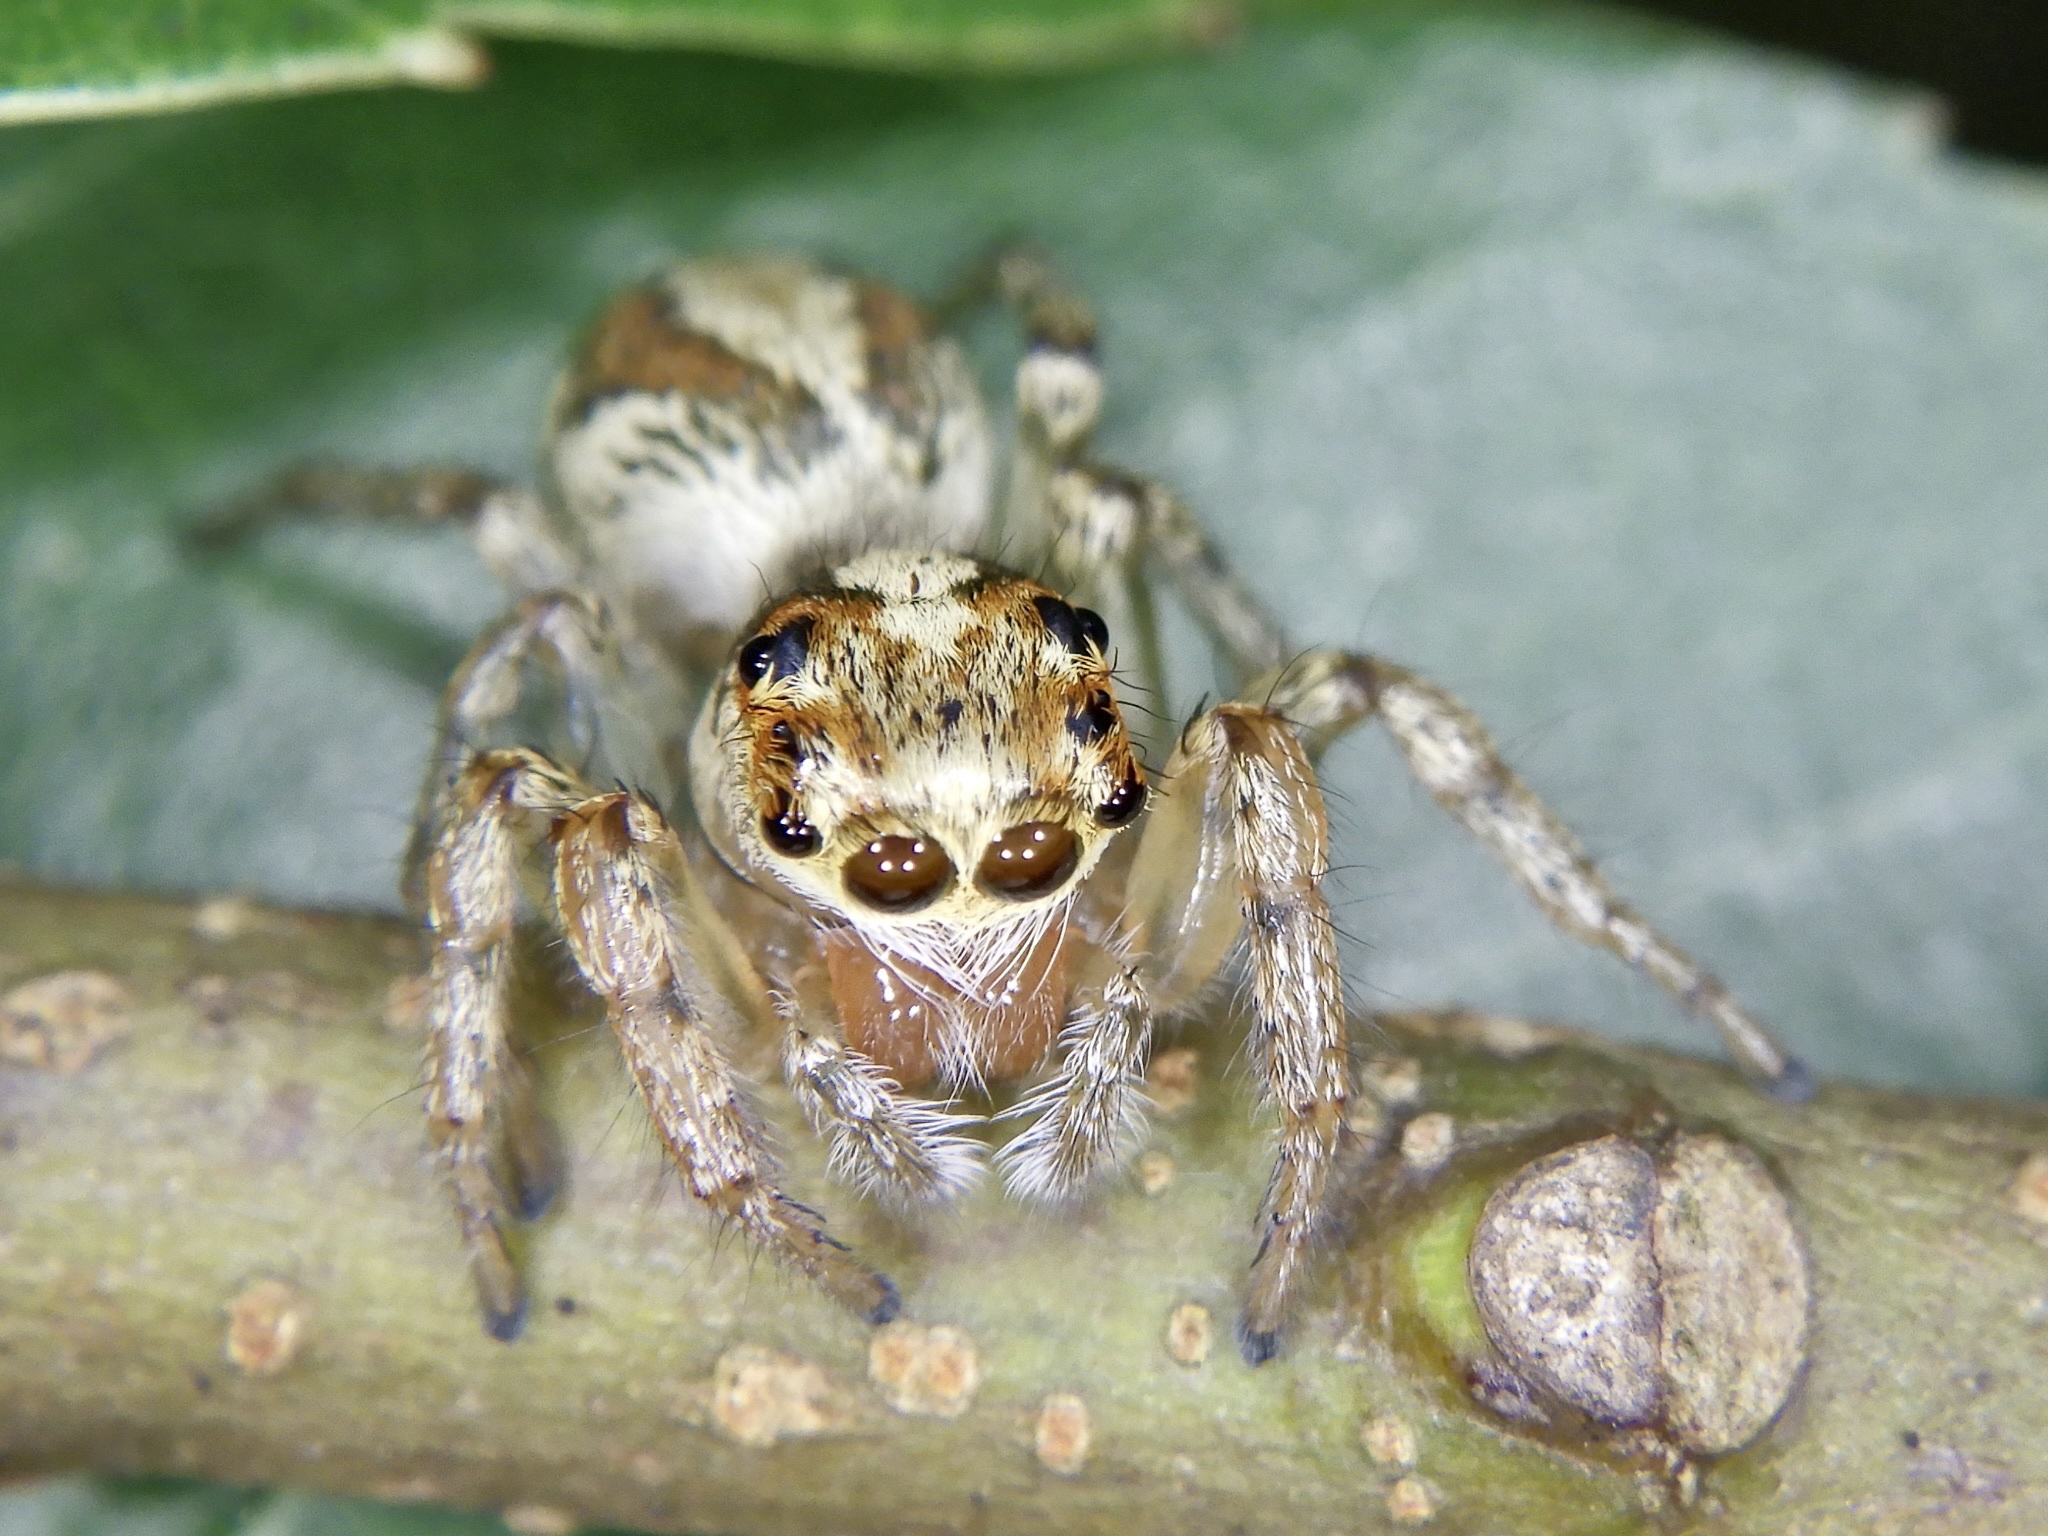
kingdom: Animalia
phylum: Arthropoda
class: Arachnida
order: Araneae
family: Salticidae
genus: Plexippoides
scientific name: Plexippoides doenitzi
